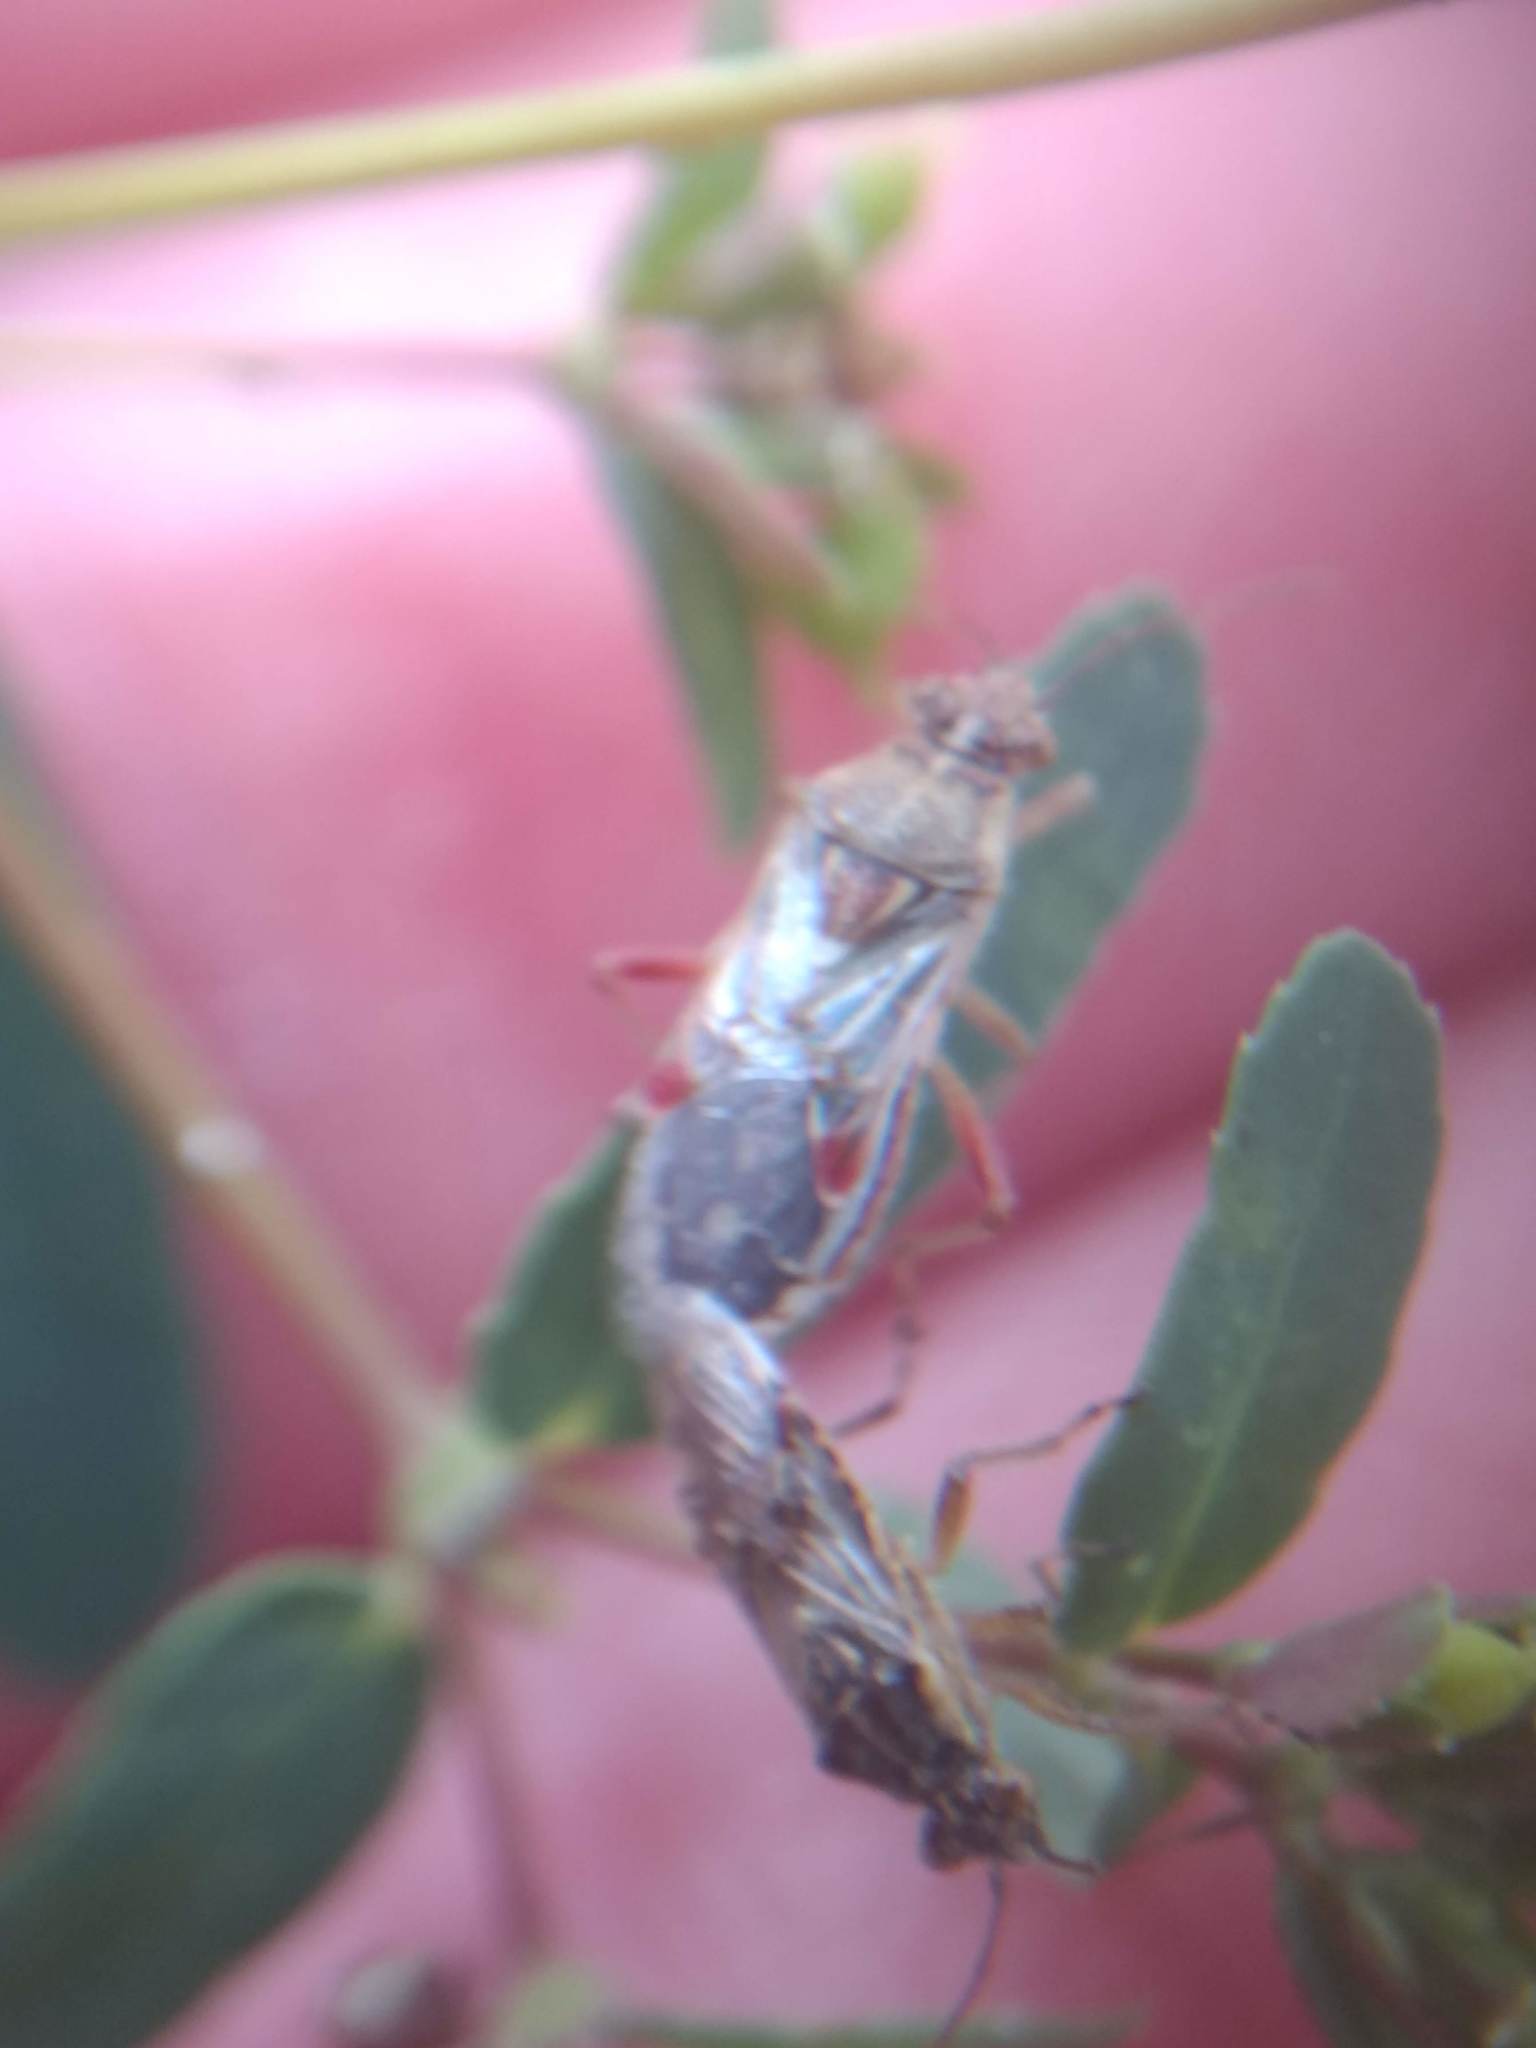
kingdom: Animalia
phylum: Arthropoda
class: Insecta
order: Hemiptera
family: Rhopalidae
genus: Liorhyssus
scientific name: Liorhyssus hyalinus
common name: Scentless plant bug
